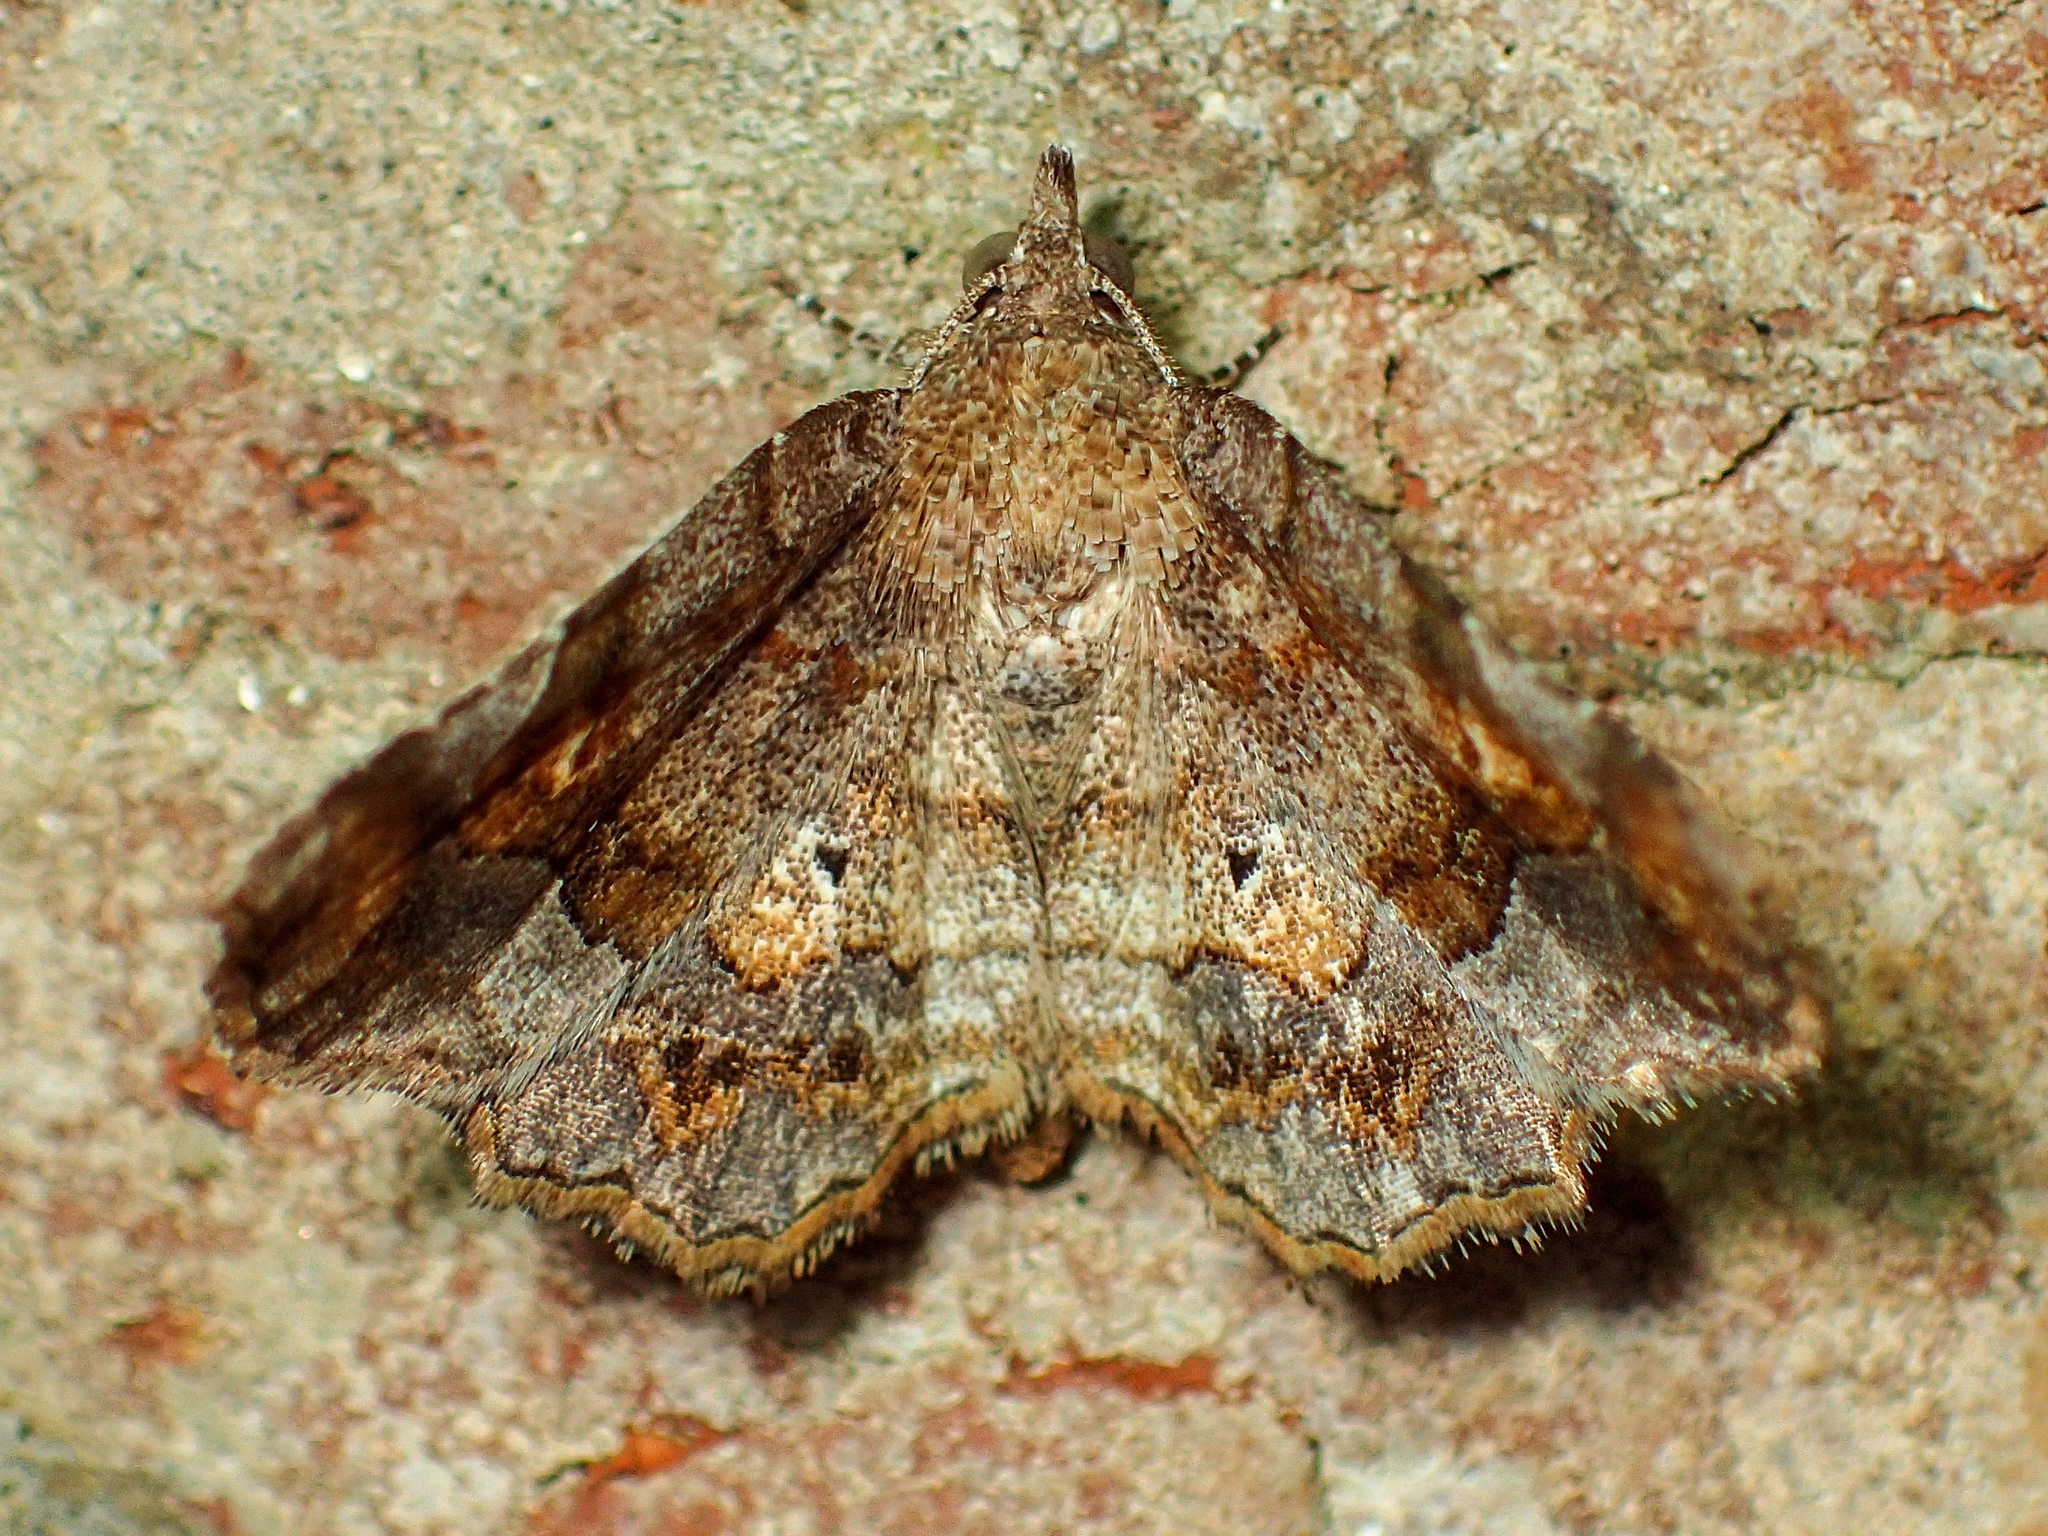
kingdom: Animalia
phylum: Arthropoda
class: Insecta
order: Lepidoptera
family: Erebidae
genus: Pangrapta
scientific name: Pangrapta decoralis
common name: Decorated owlet
